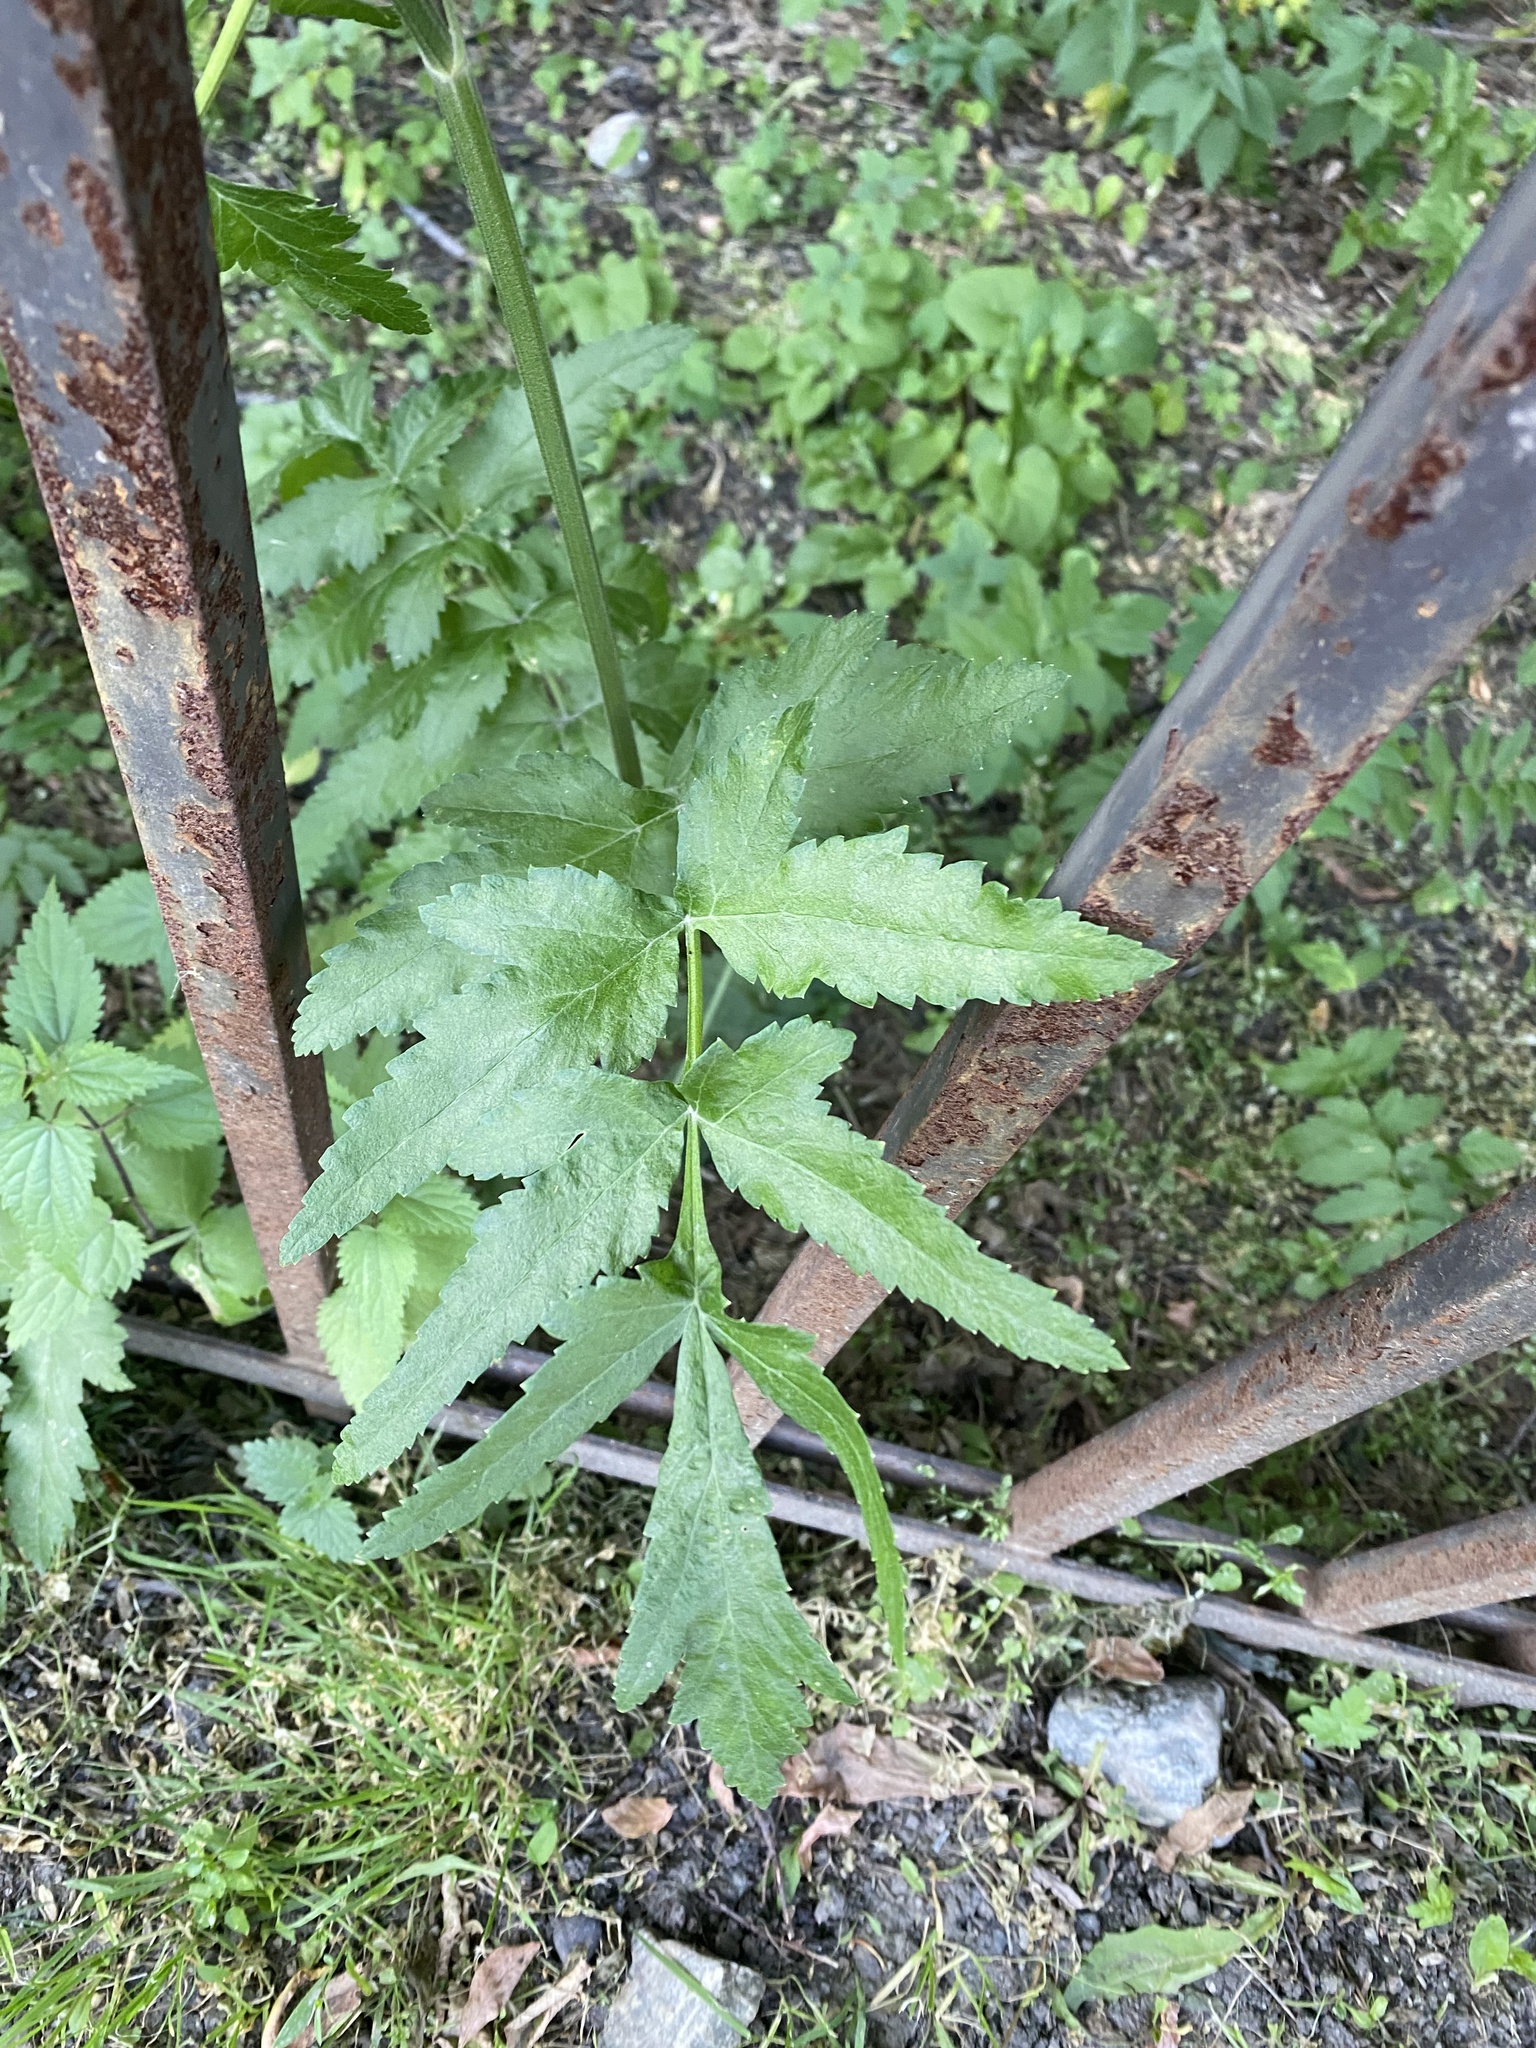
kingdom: Plantae
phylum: Tracheophyta
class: Magnoliopsida
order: Apiales
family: Apiaceae
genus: Pastinaca
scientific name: Pastinaca sativa
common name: Wild parsnip
